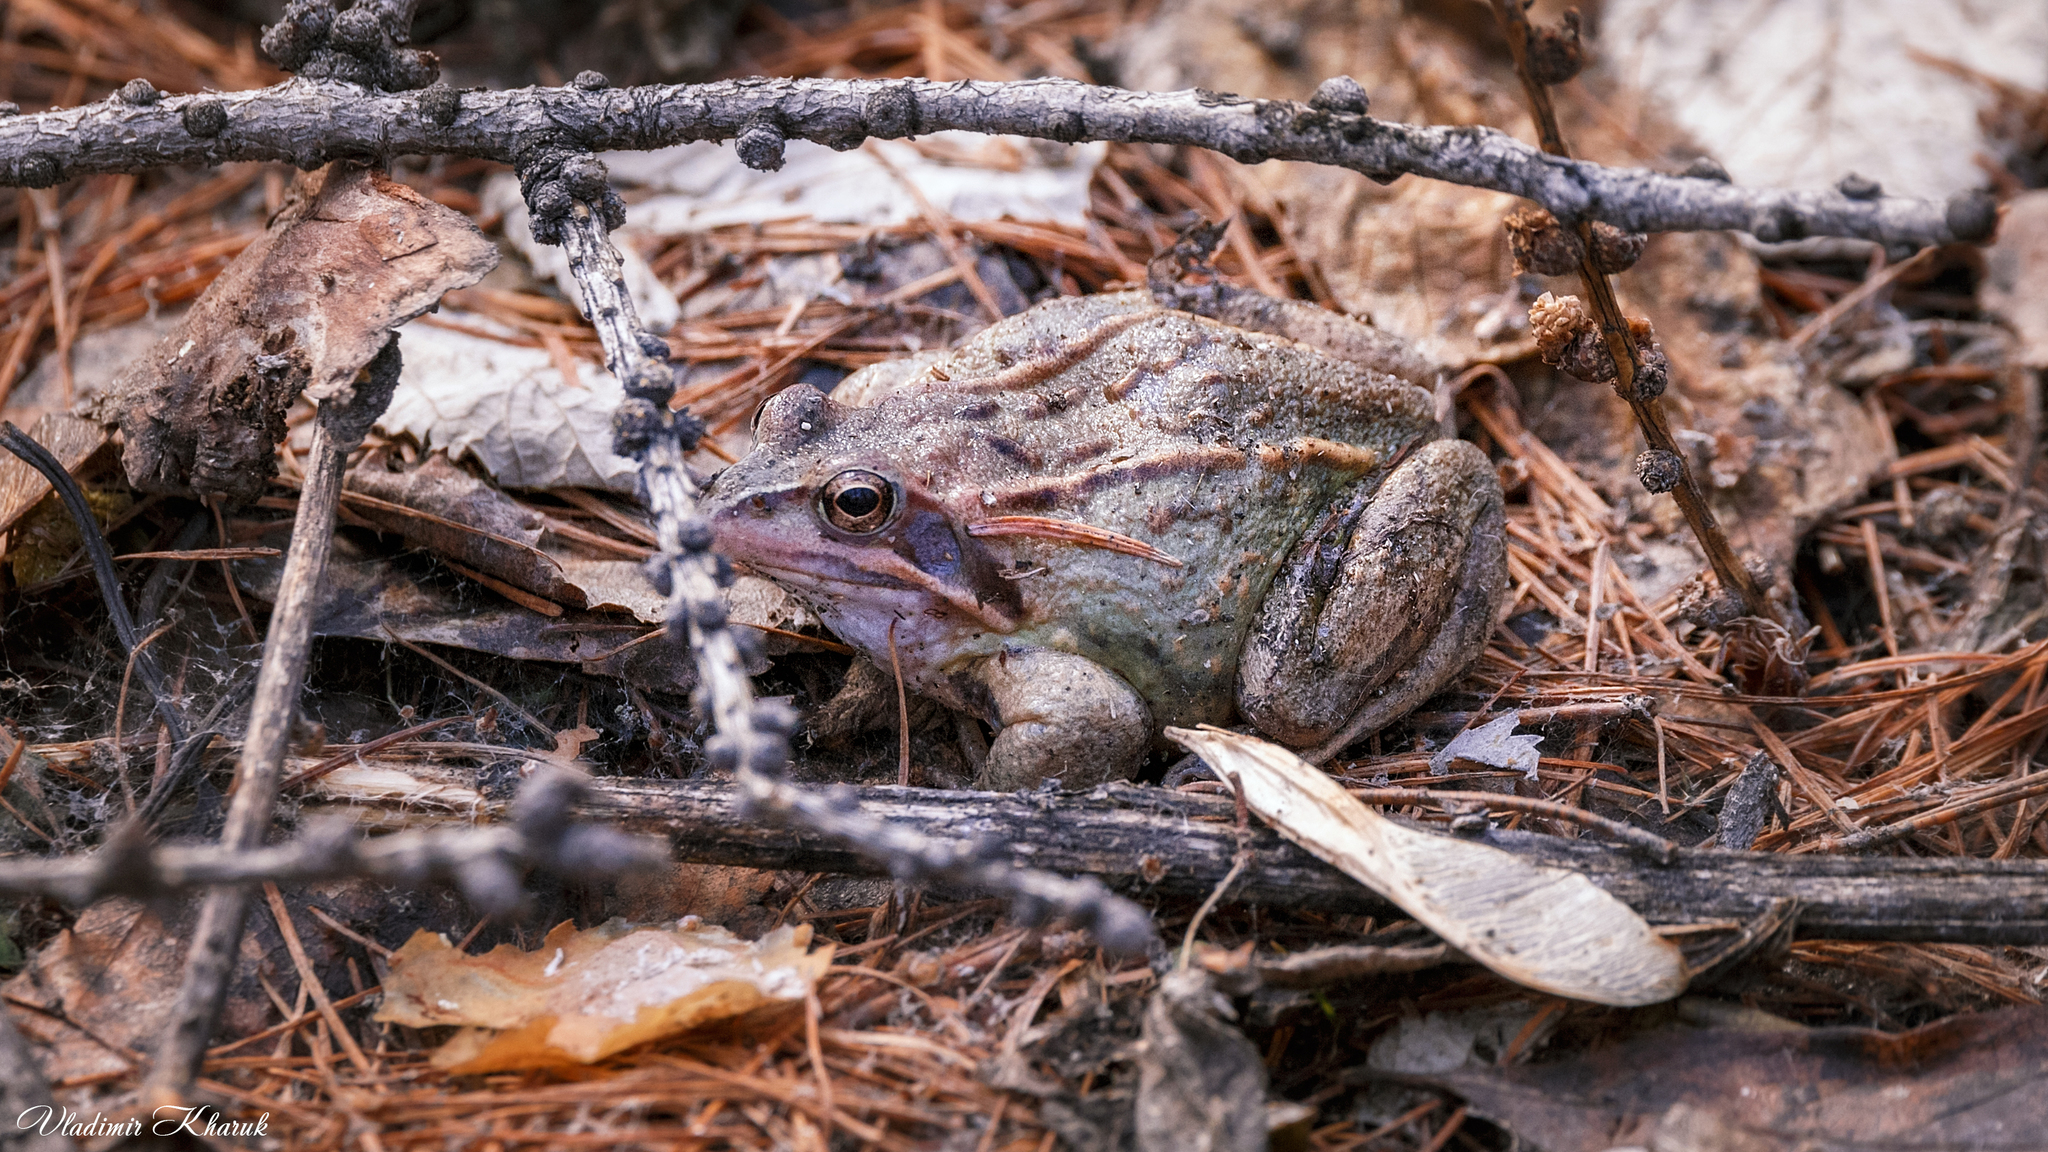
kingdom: Animalia
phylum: Chordata
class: Amphibia
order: Anura
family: Ranidae
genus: Rana
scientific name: Rana arvalis
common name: Moor frog
